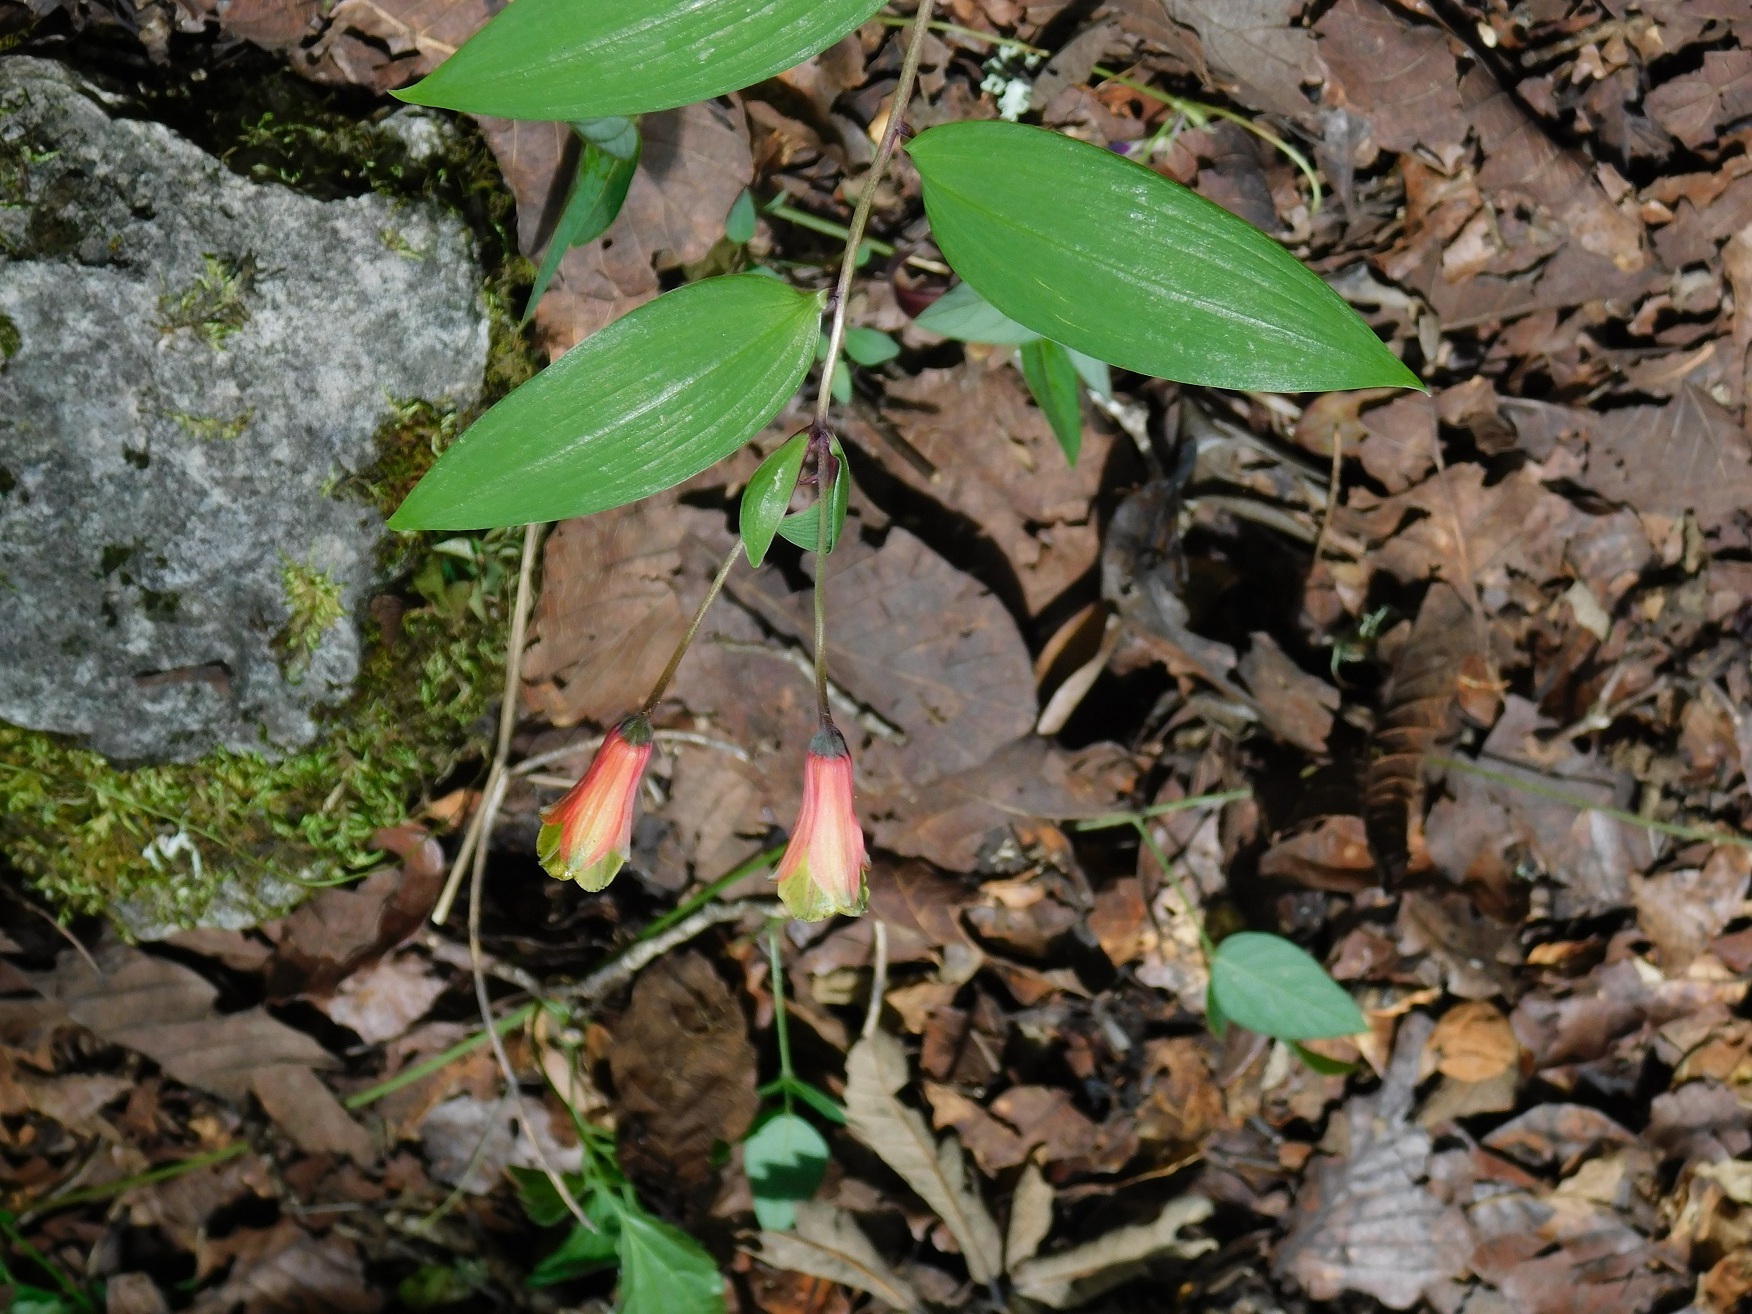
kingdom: Plantae
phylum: Tracheophyta
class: Liliopsida
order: Liliales
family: Alstroemeriaceae
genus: Bomarea
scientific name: Bomarea edulis
